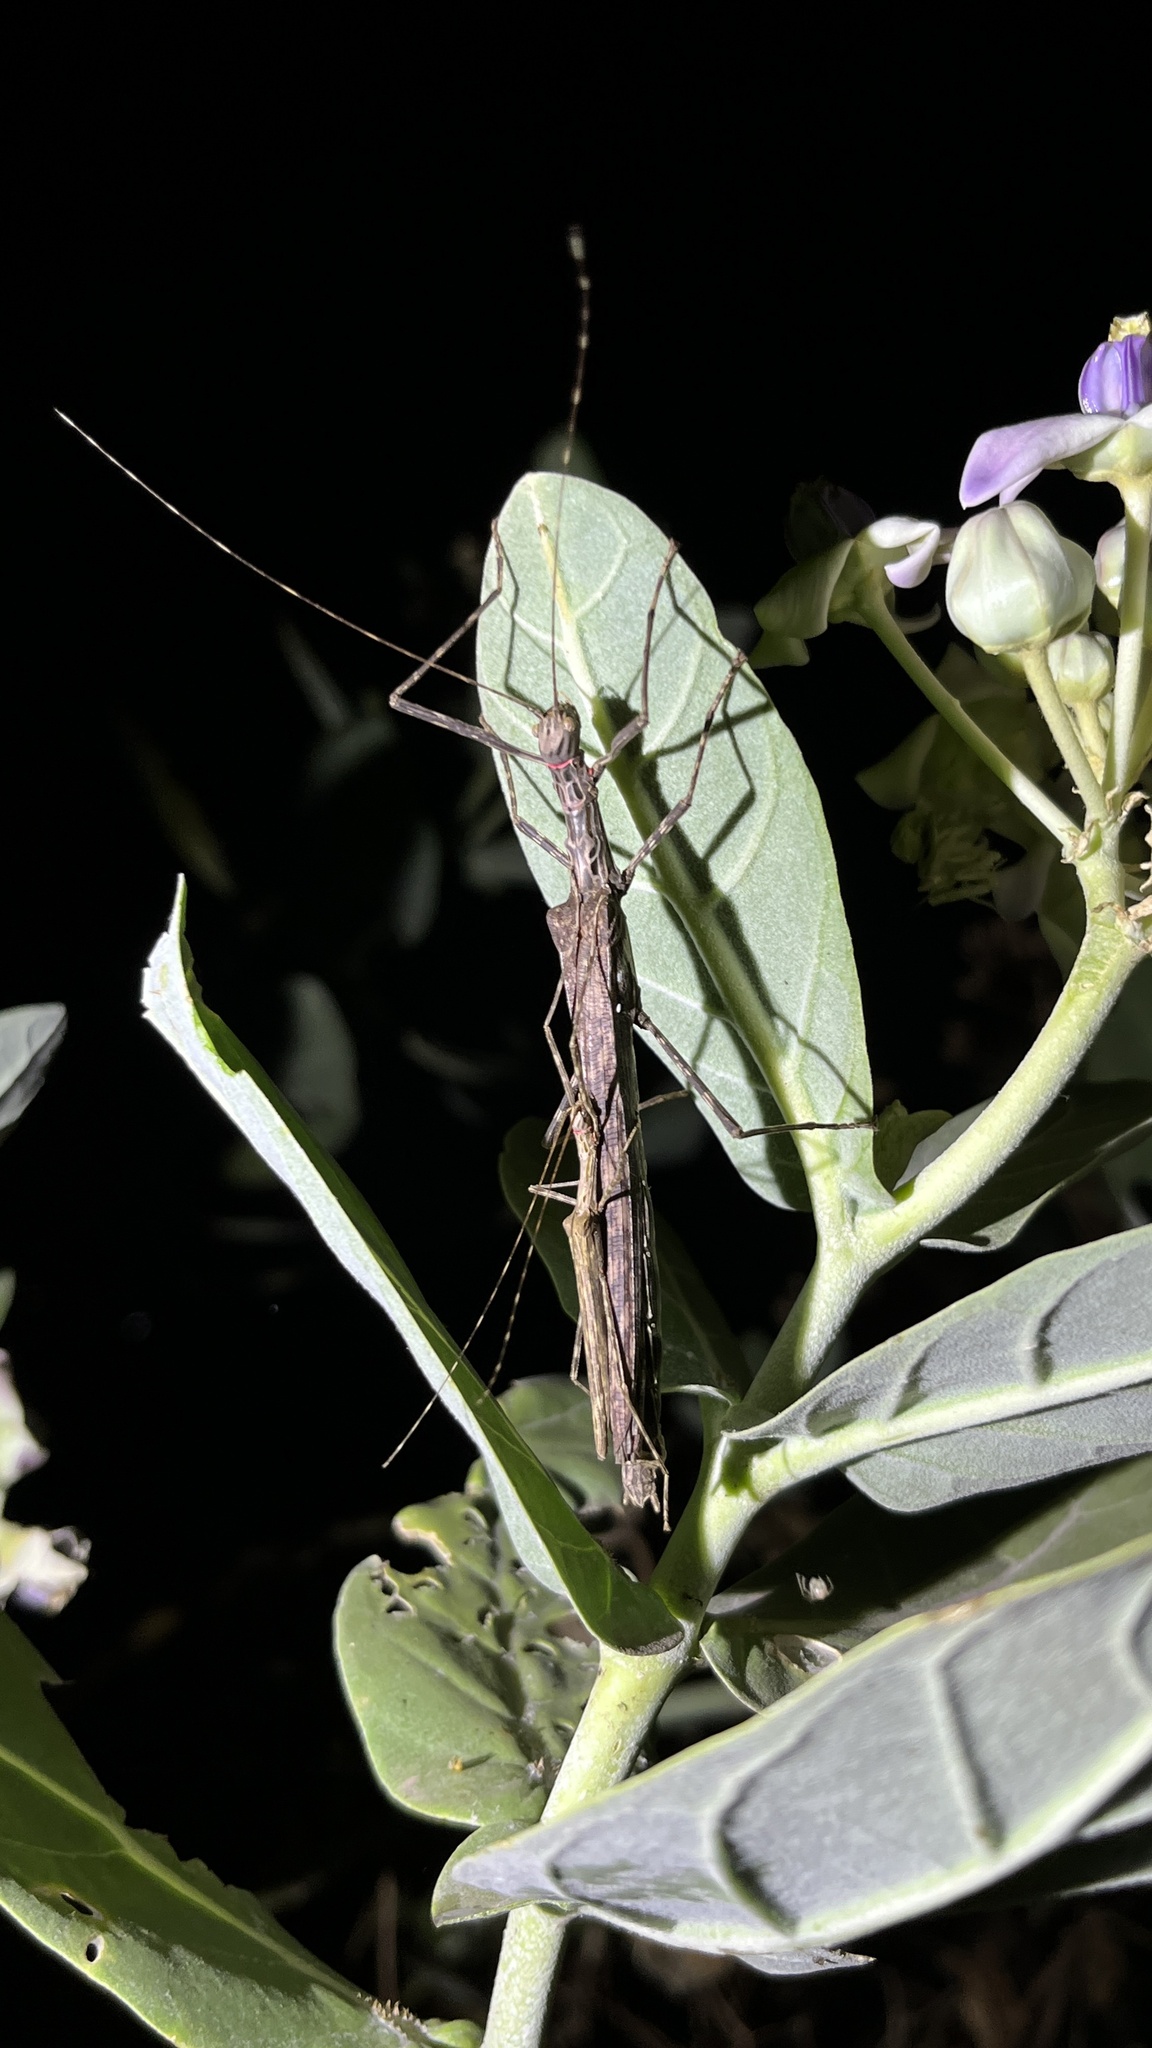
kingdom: Animalia
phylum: Arthropoda
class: Insecta
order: Phasmida
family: Lonchodidae
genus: Trachythorax
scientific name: Trachythorax maculicollis
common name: Oleander stick-insect
